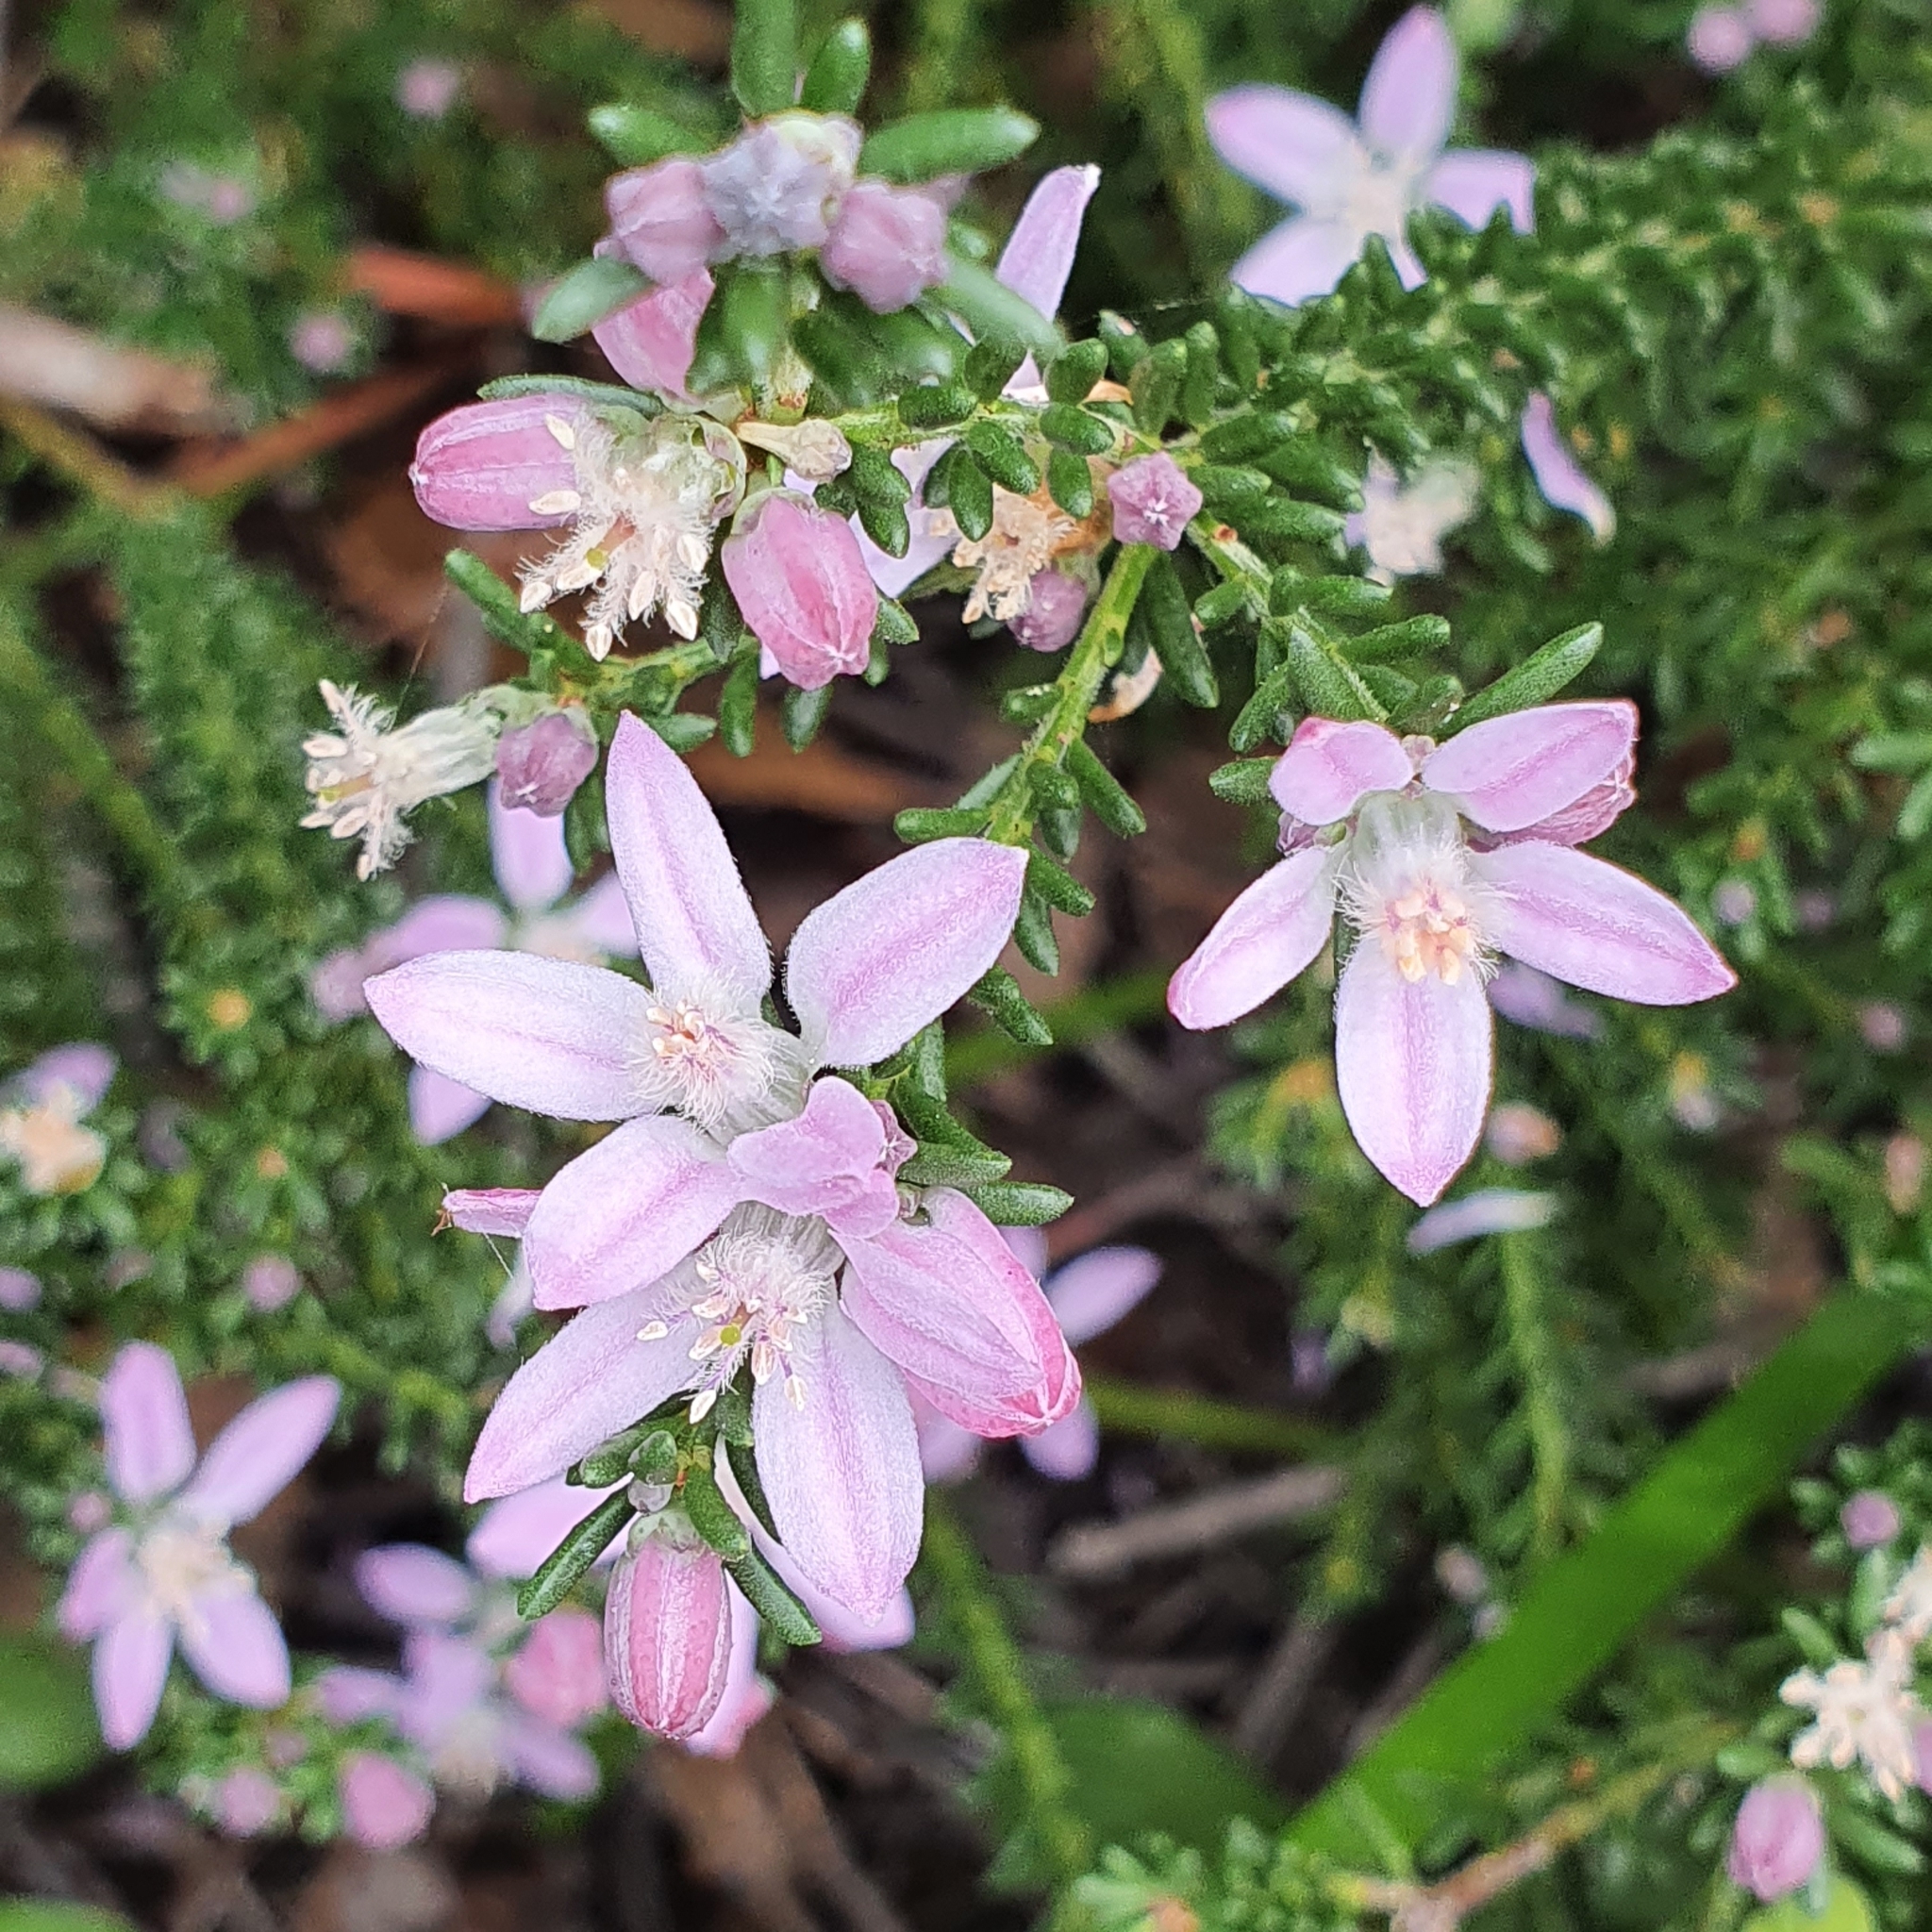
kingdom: Plantae
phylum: Tracheophyta
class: Magnoliopsida
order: Sapindales
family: Rutaceae
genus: Philotheca
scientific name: Philotheca salsolifolia
